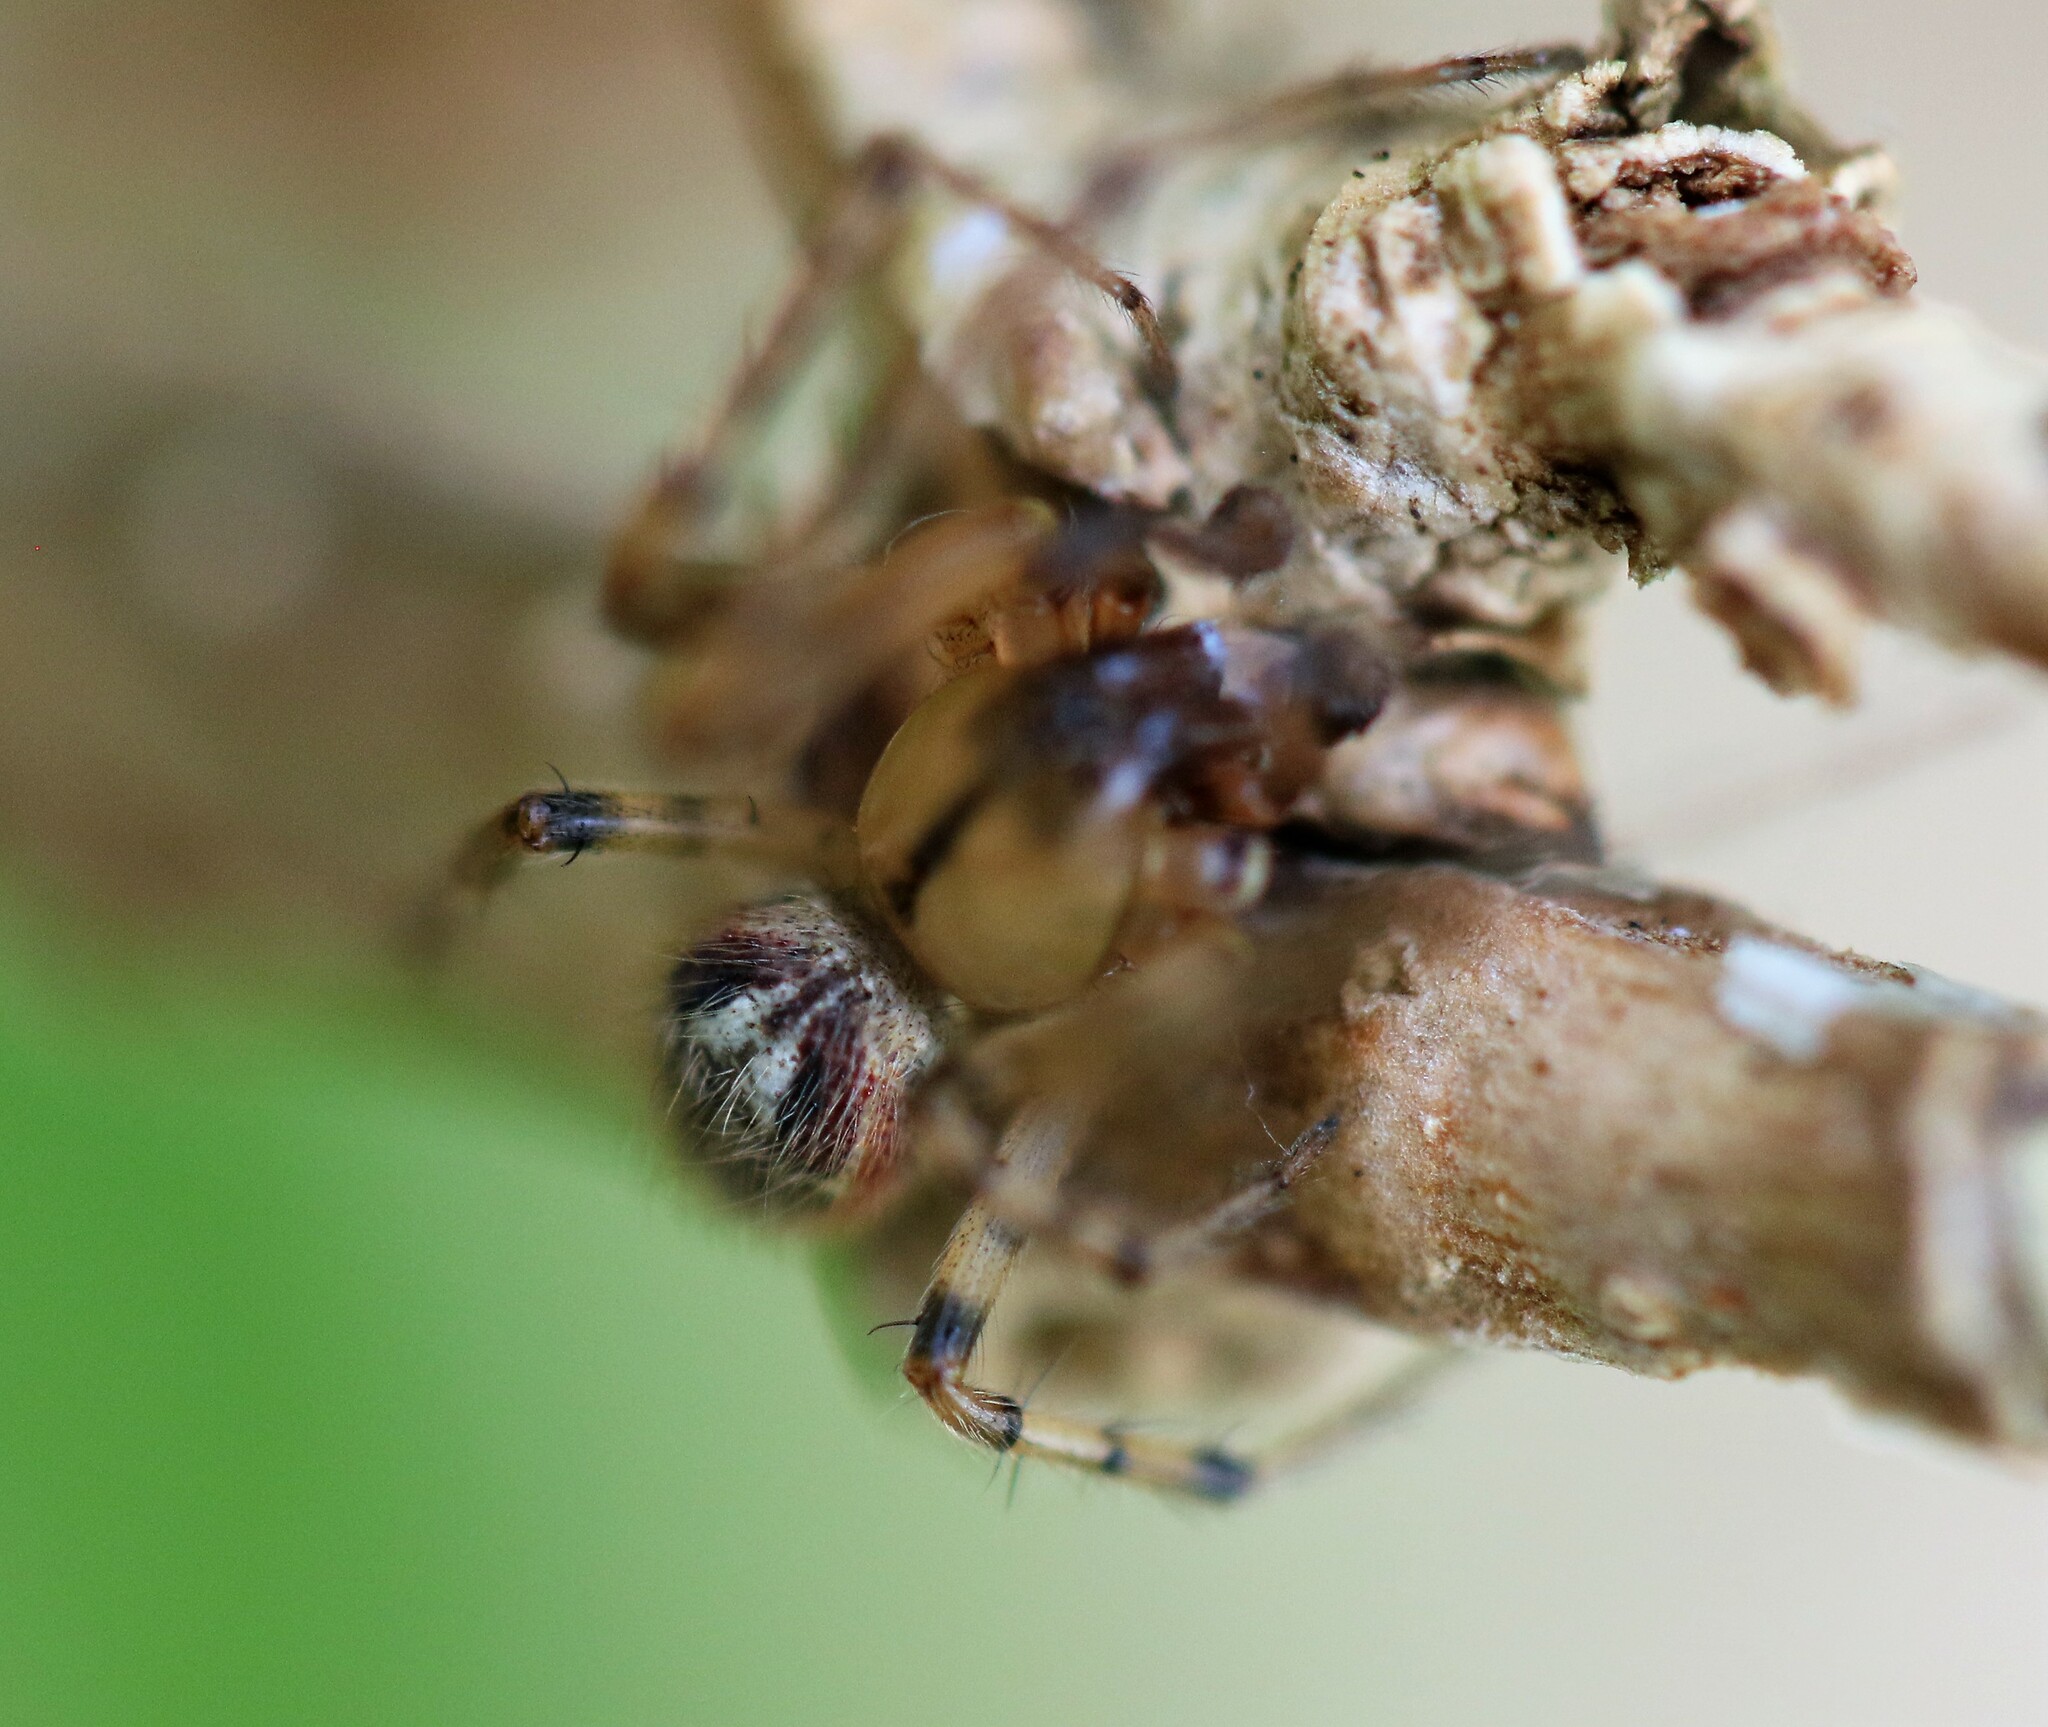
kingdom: Animalia
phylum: Arthropoda
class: Arachnida
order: Araneae
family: Araneidae
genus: Zygiella
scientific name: Zygiella atrica
